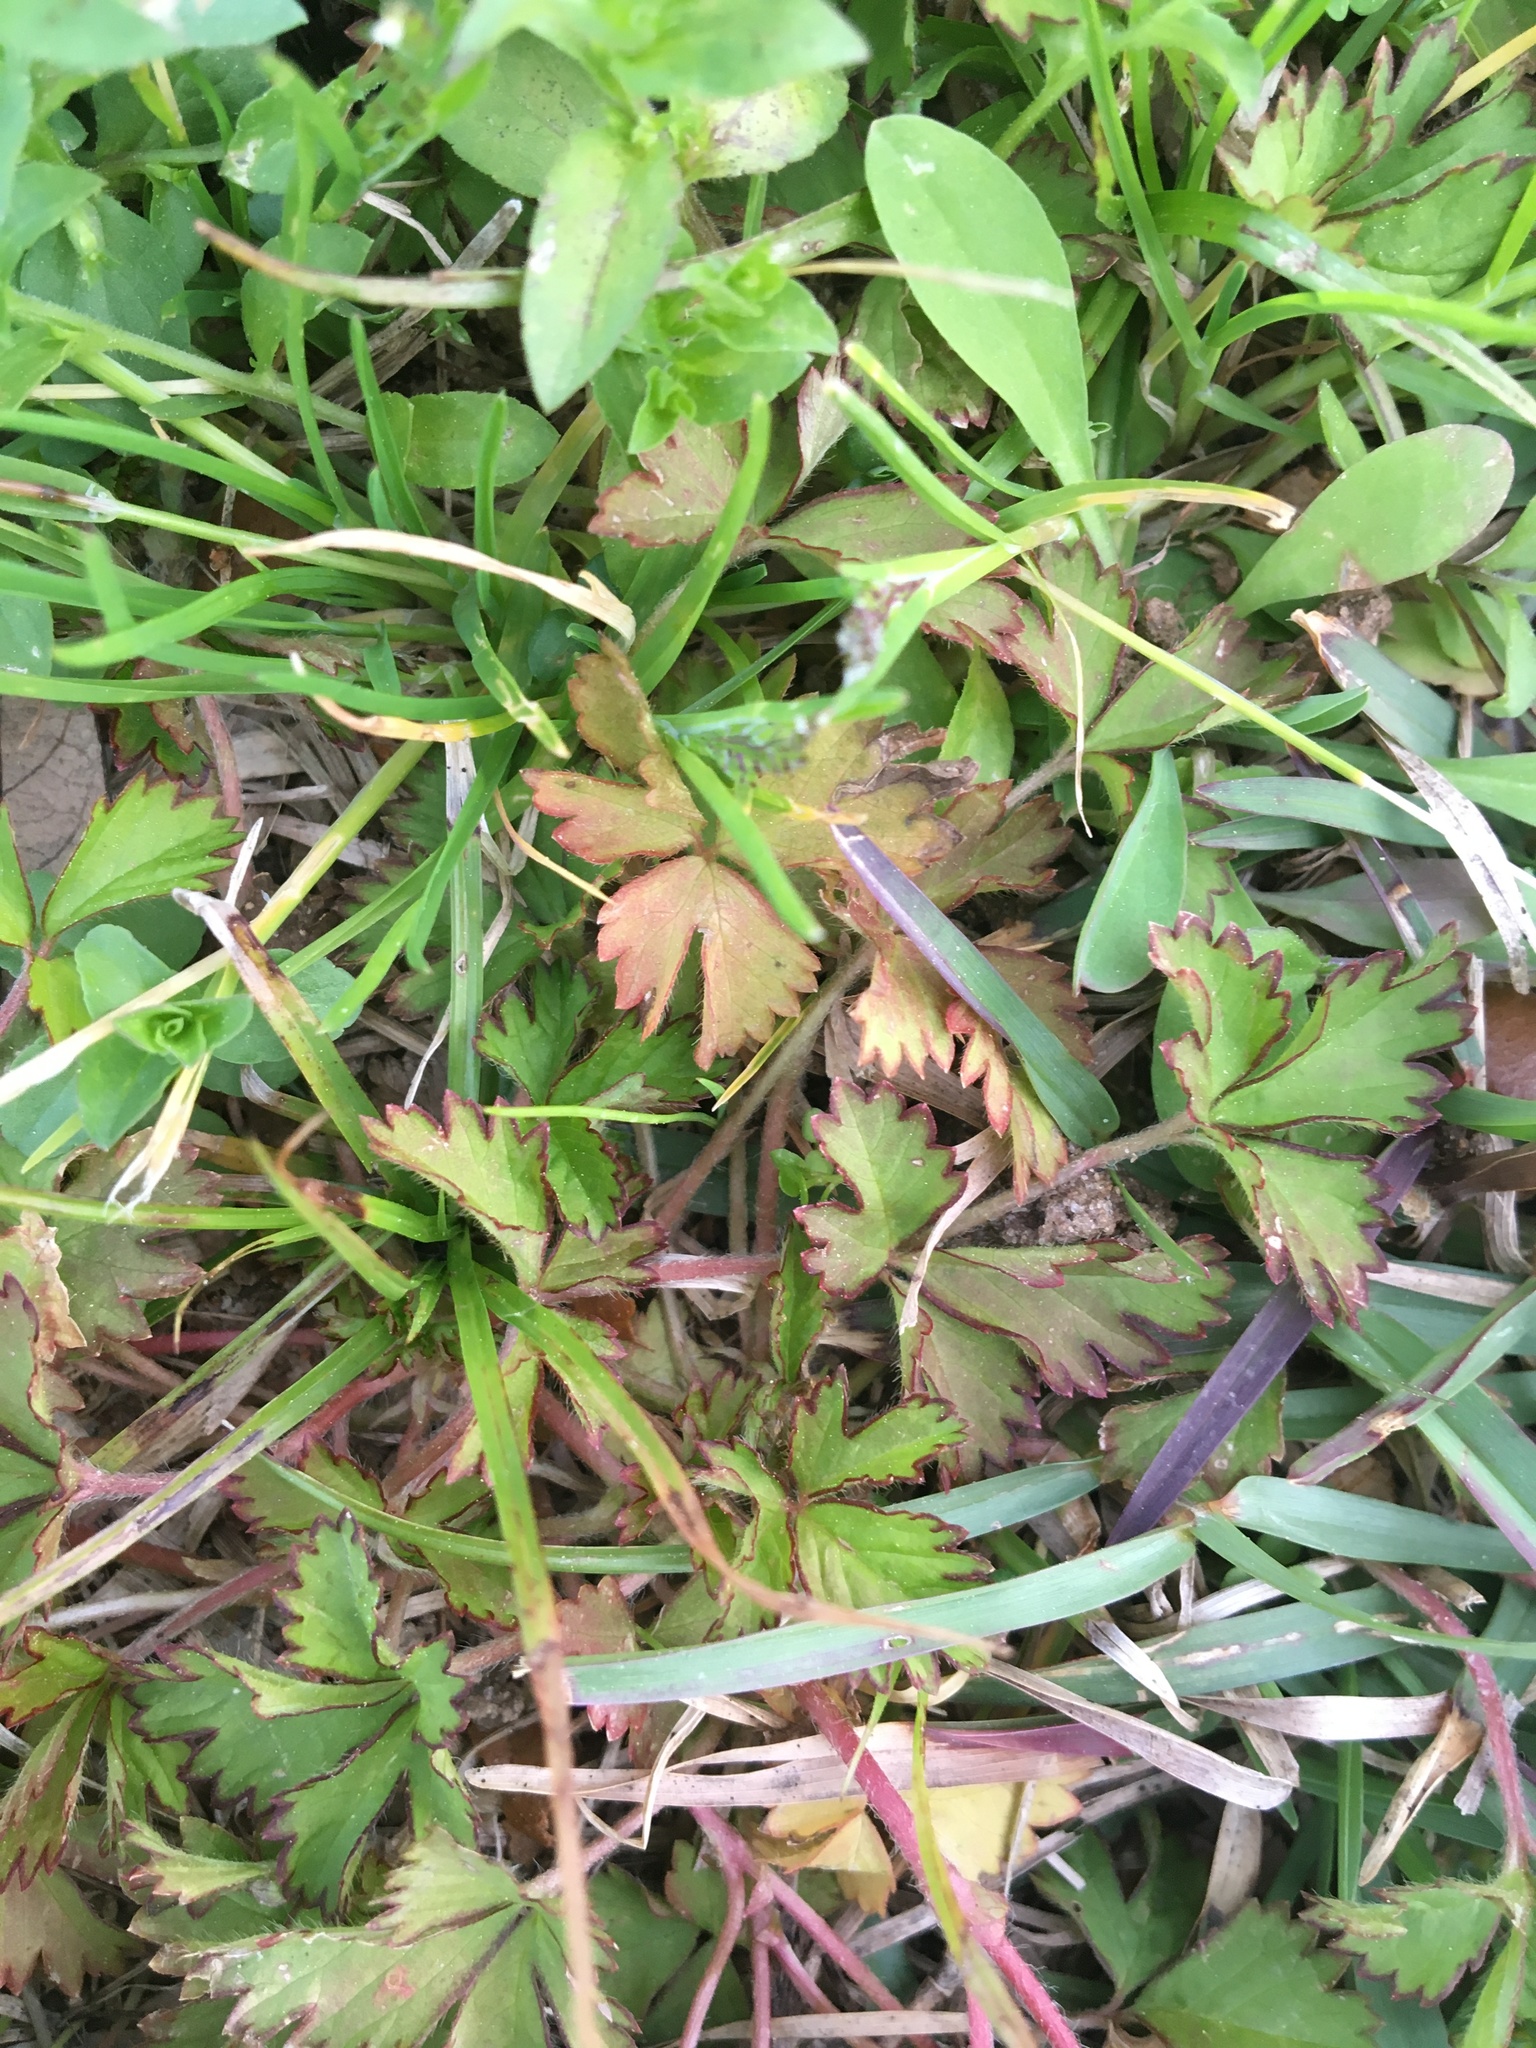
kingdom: Plantae
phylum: Tracheophyta
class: Magnoliopsida
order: Rosales
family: Rosaceae
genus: Potentilla
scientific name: Potentilla indica
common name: Yellow-flowered strawberry
